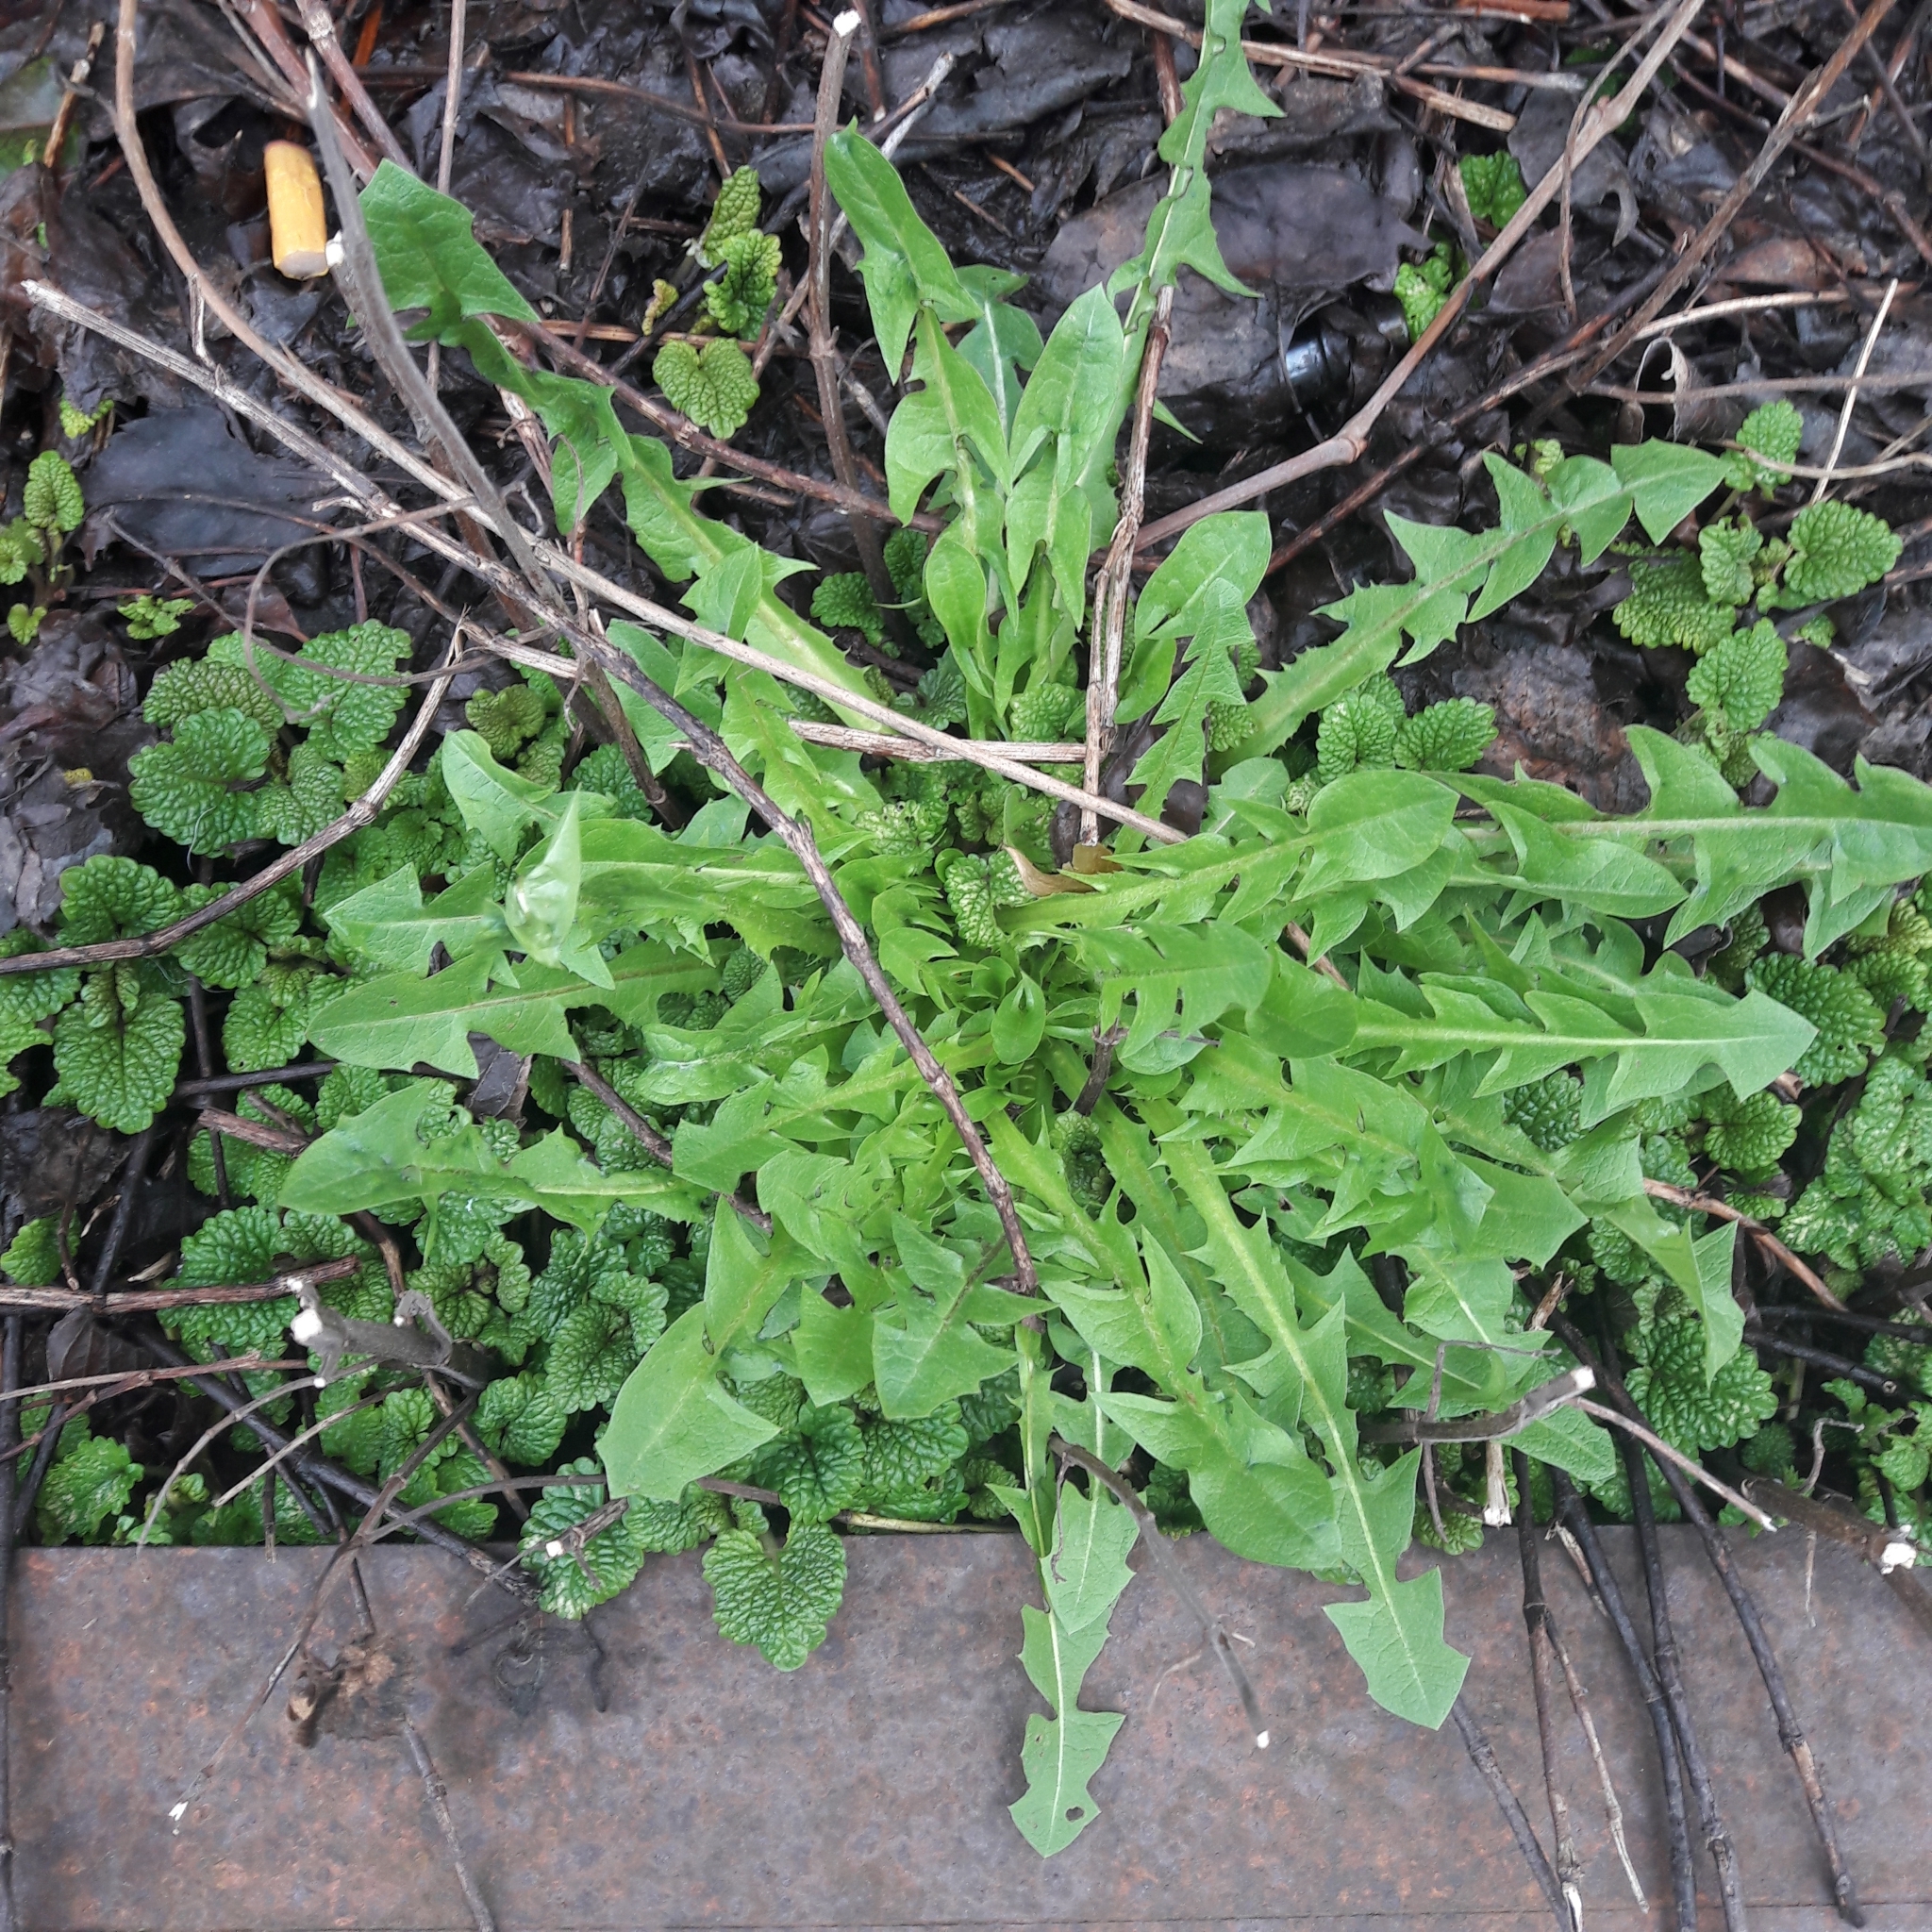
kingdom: Plantae
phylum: Tracheophyta
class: Magnoliopsida
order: Asterales
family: Asteraceae
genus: Taraxacum
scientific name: Taraxacum officinale
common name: Common dandelion
